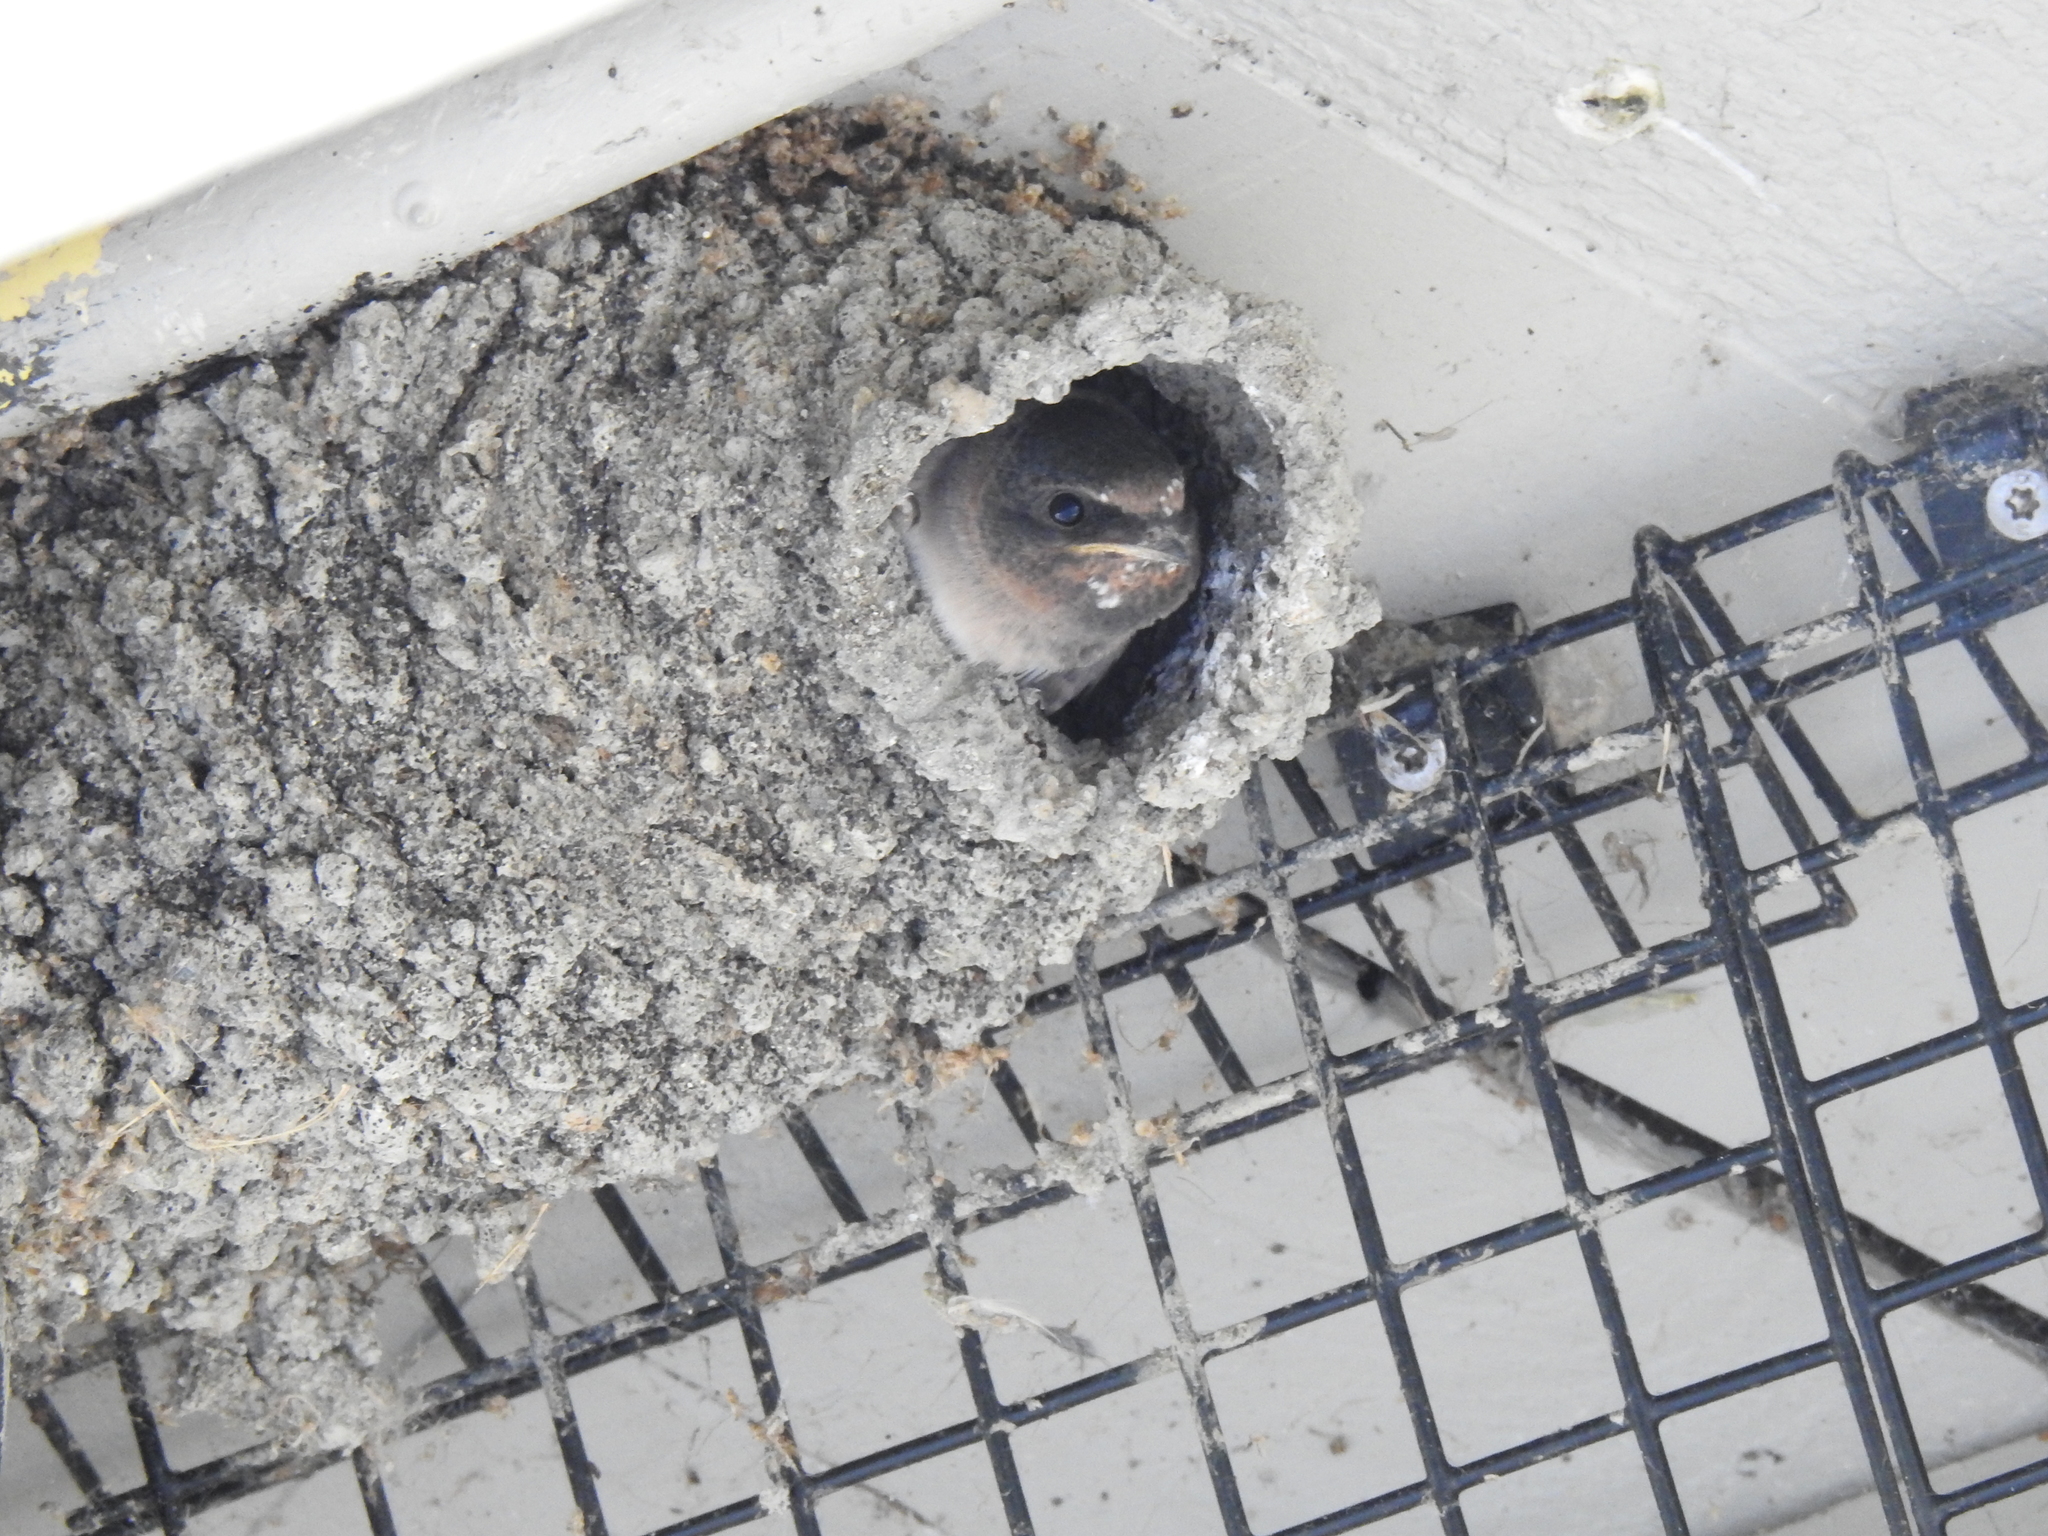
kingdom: Animalia
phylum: Chordata
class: Aves
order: Passeriformes
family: Hirundinidae
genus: Petrochelidon
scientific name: Petrochelidon pyrrhonota
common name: American cliff swallow
